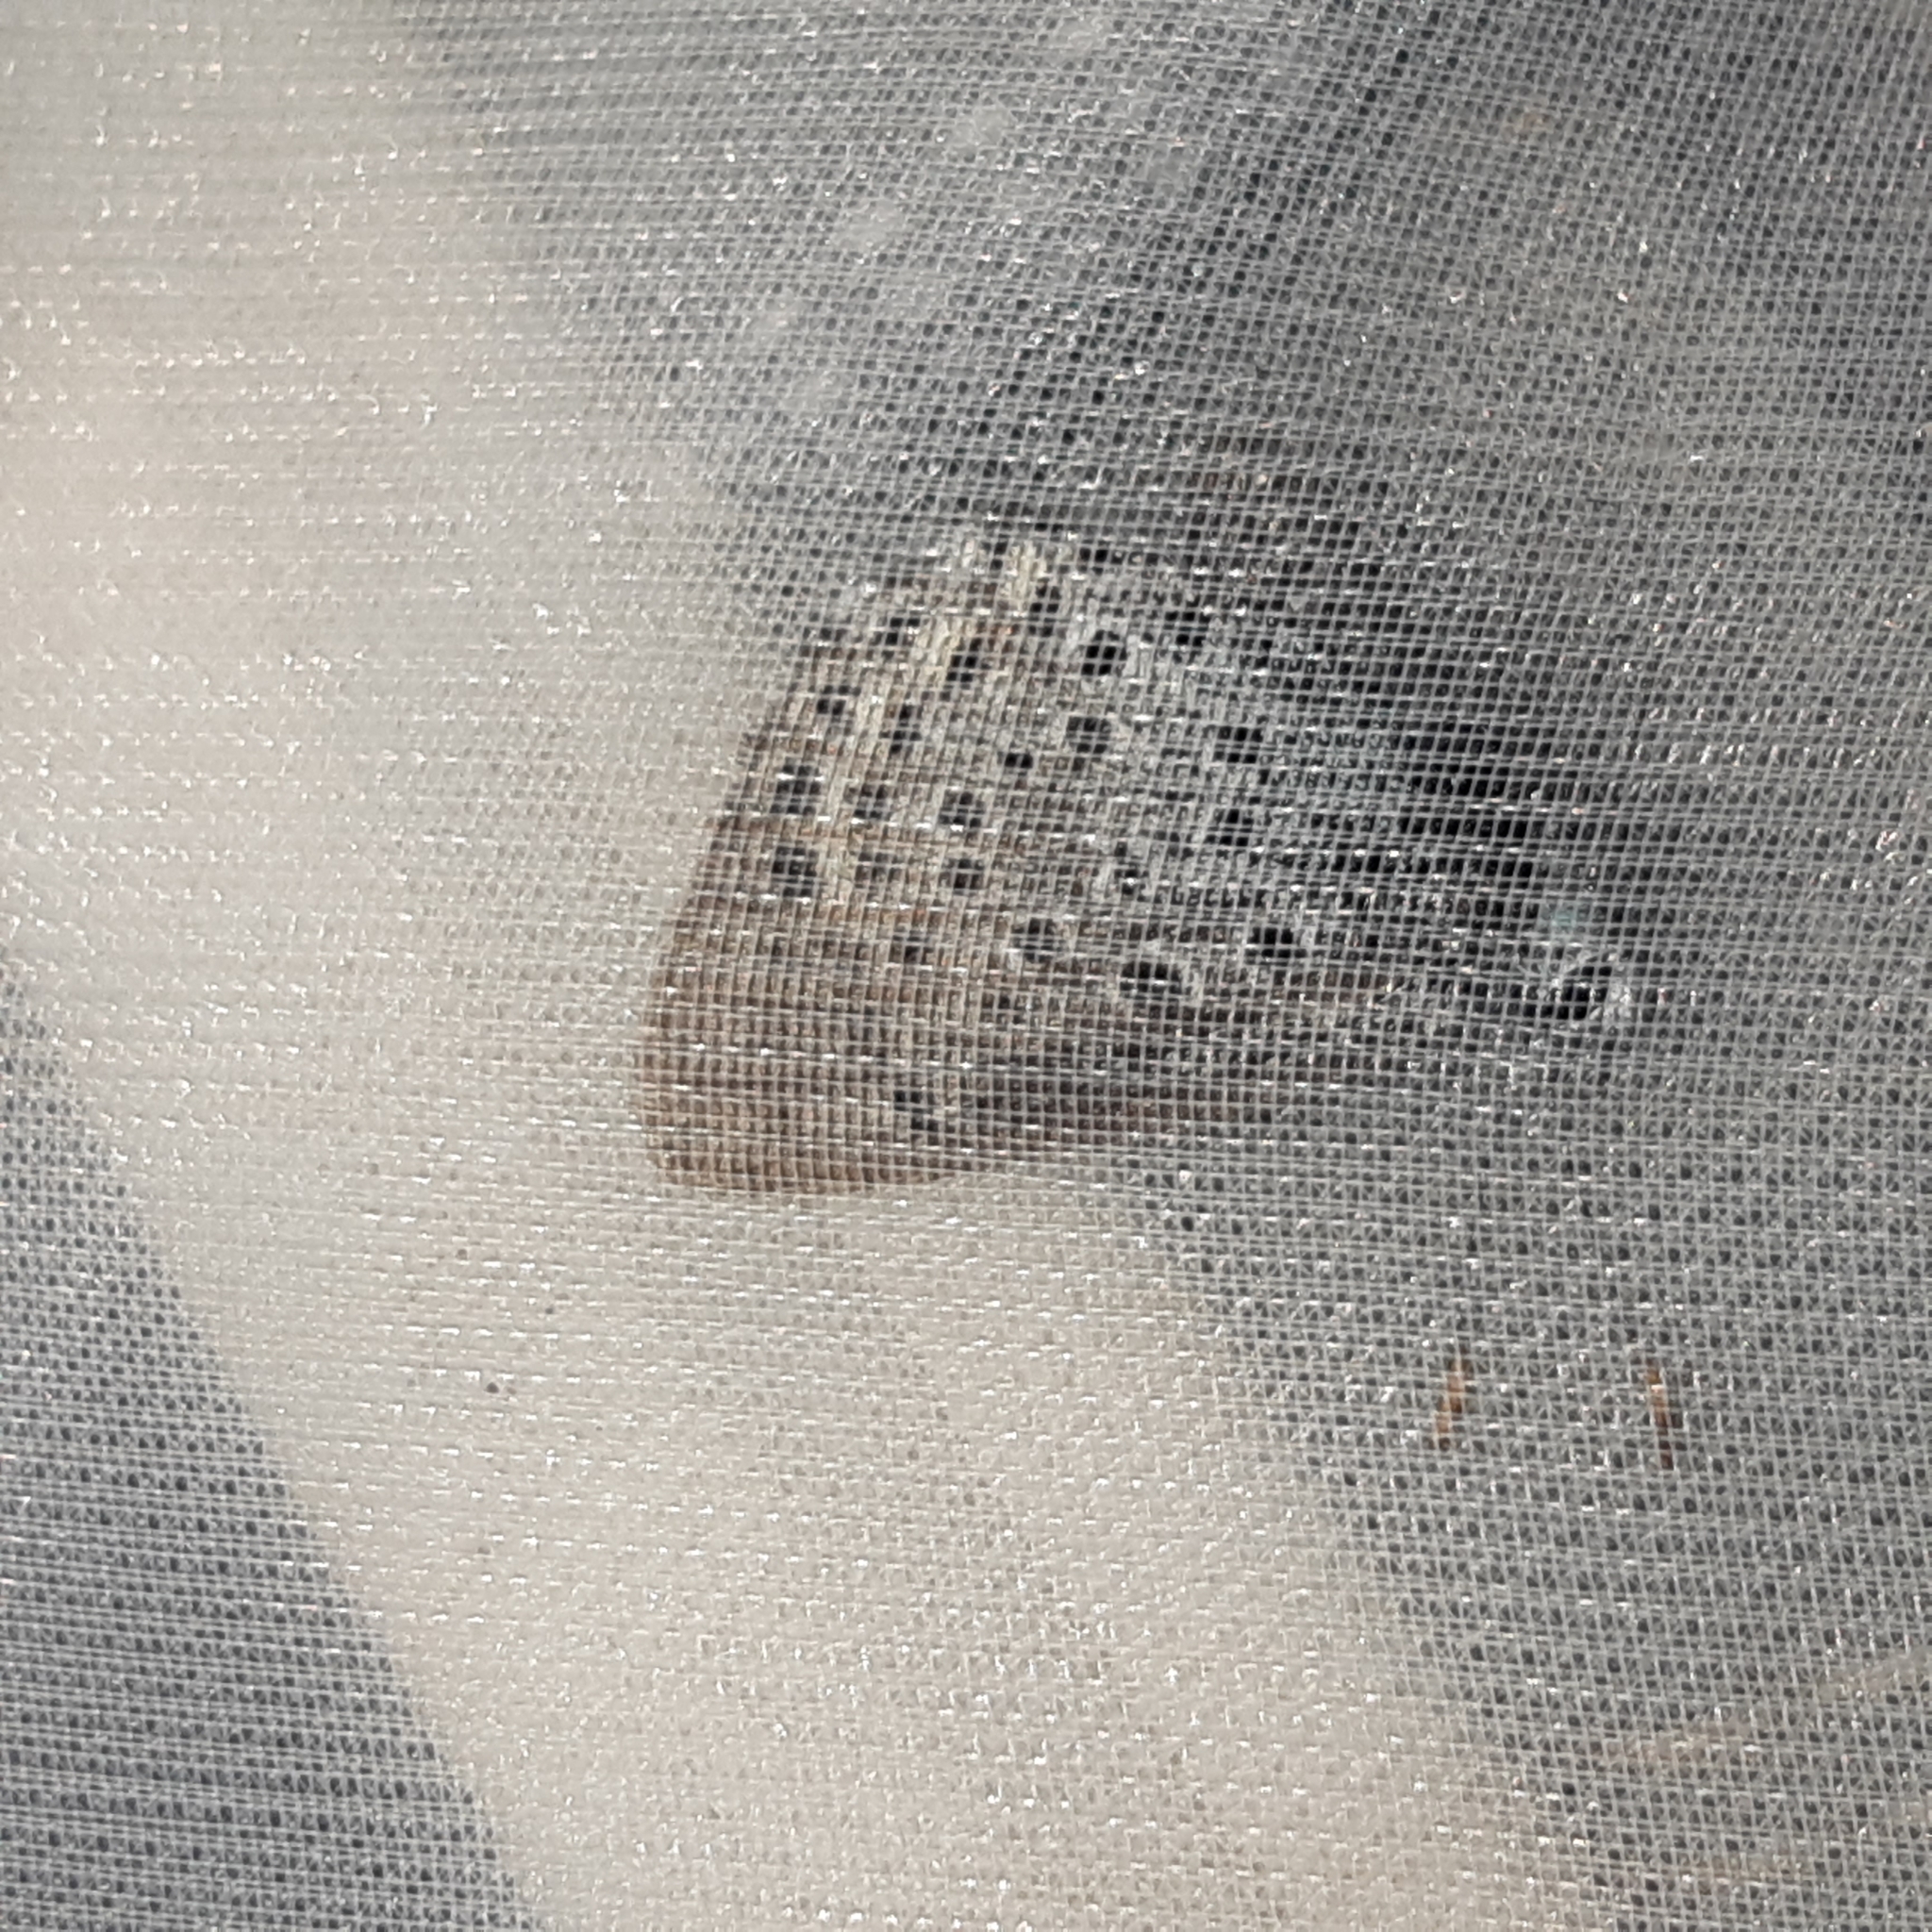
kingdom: Animalia
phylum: Arthropoda
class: Insecta
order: Lepidoptera
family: Lycaenidae
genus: Maculinea
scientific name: Maculinea arion
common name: Large blue
